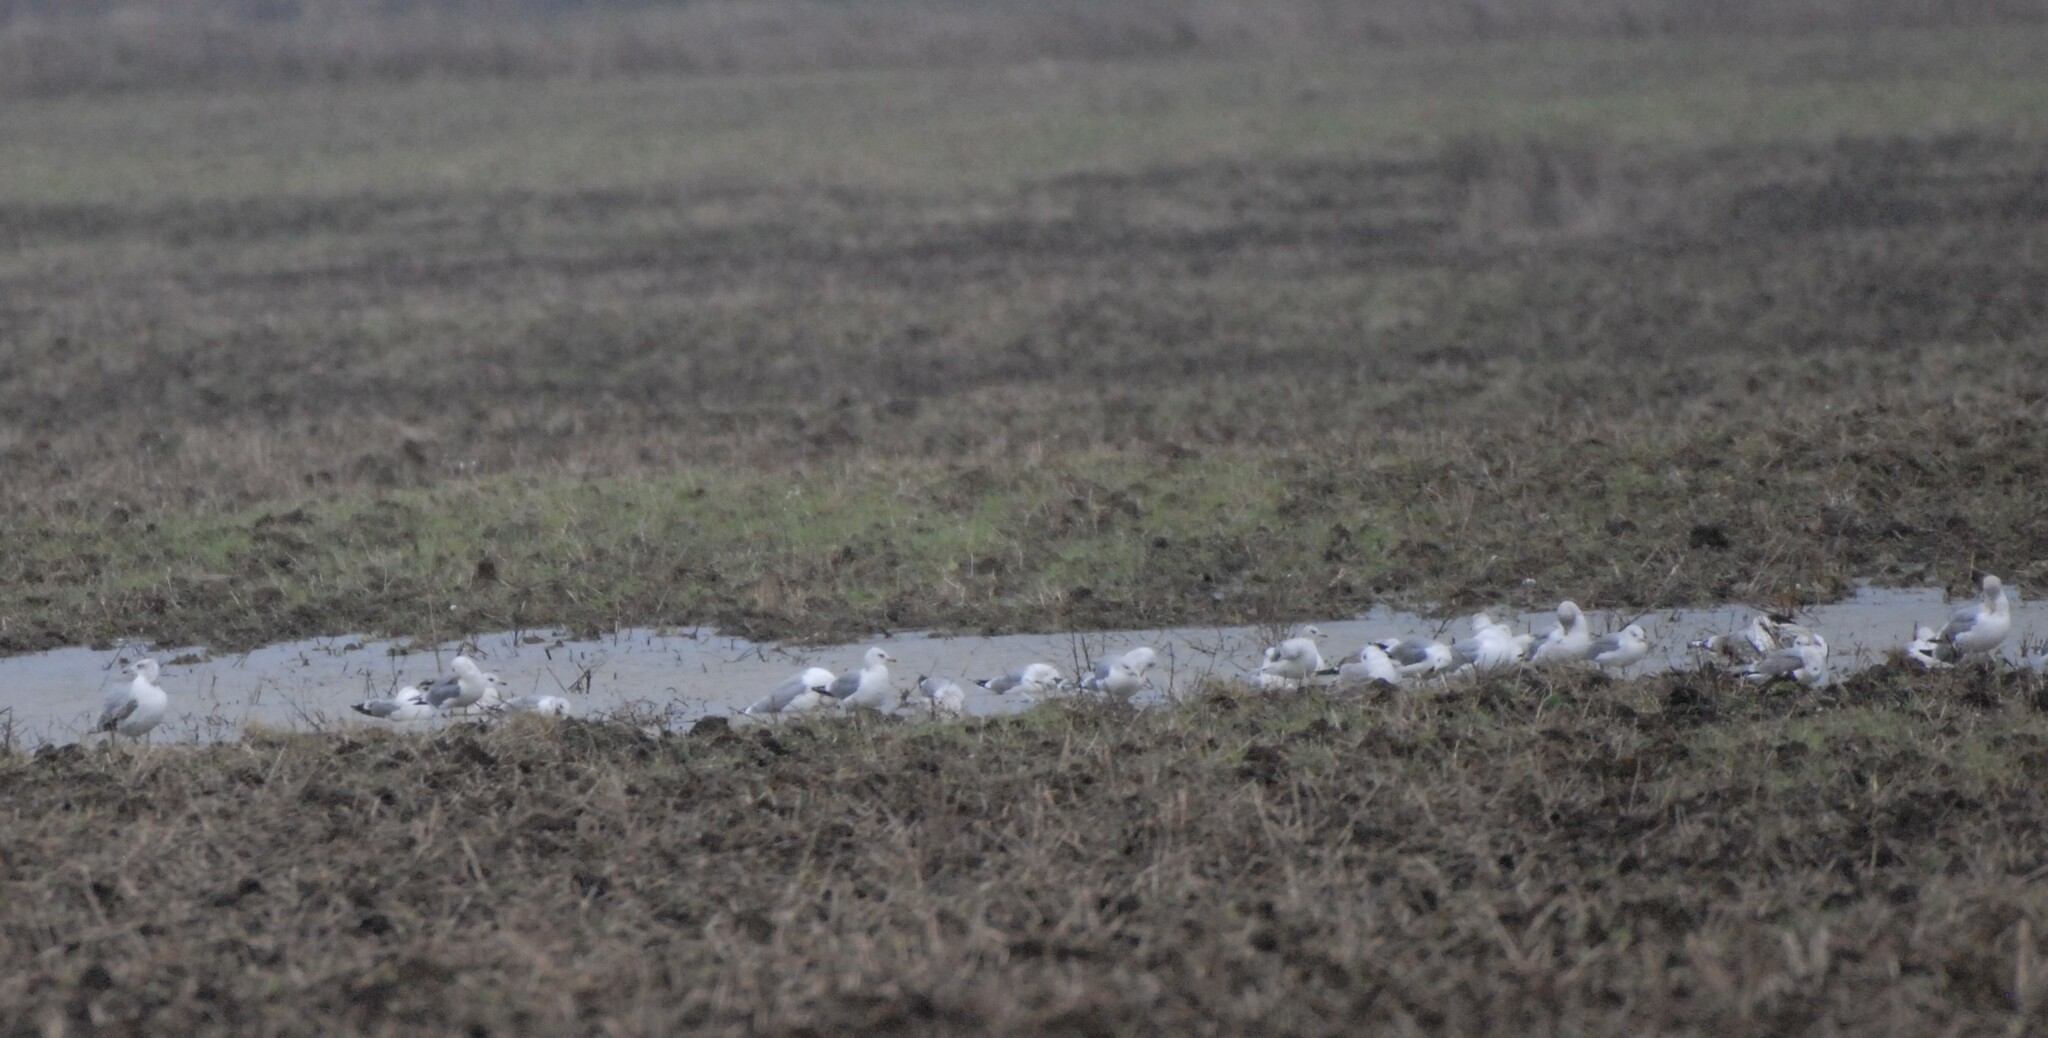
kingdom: Animalia
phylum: Chordata
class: Aves
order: Charadriiformes
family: Laridae
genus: Larus
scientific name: Larus canus
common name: Mew gull
